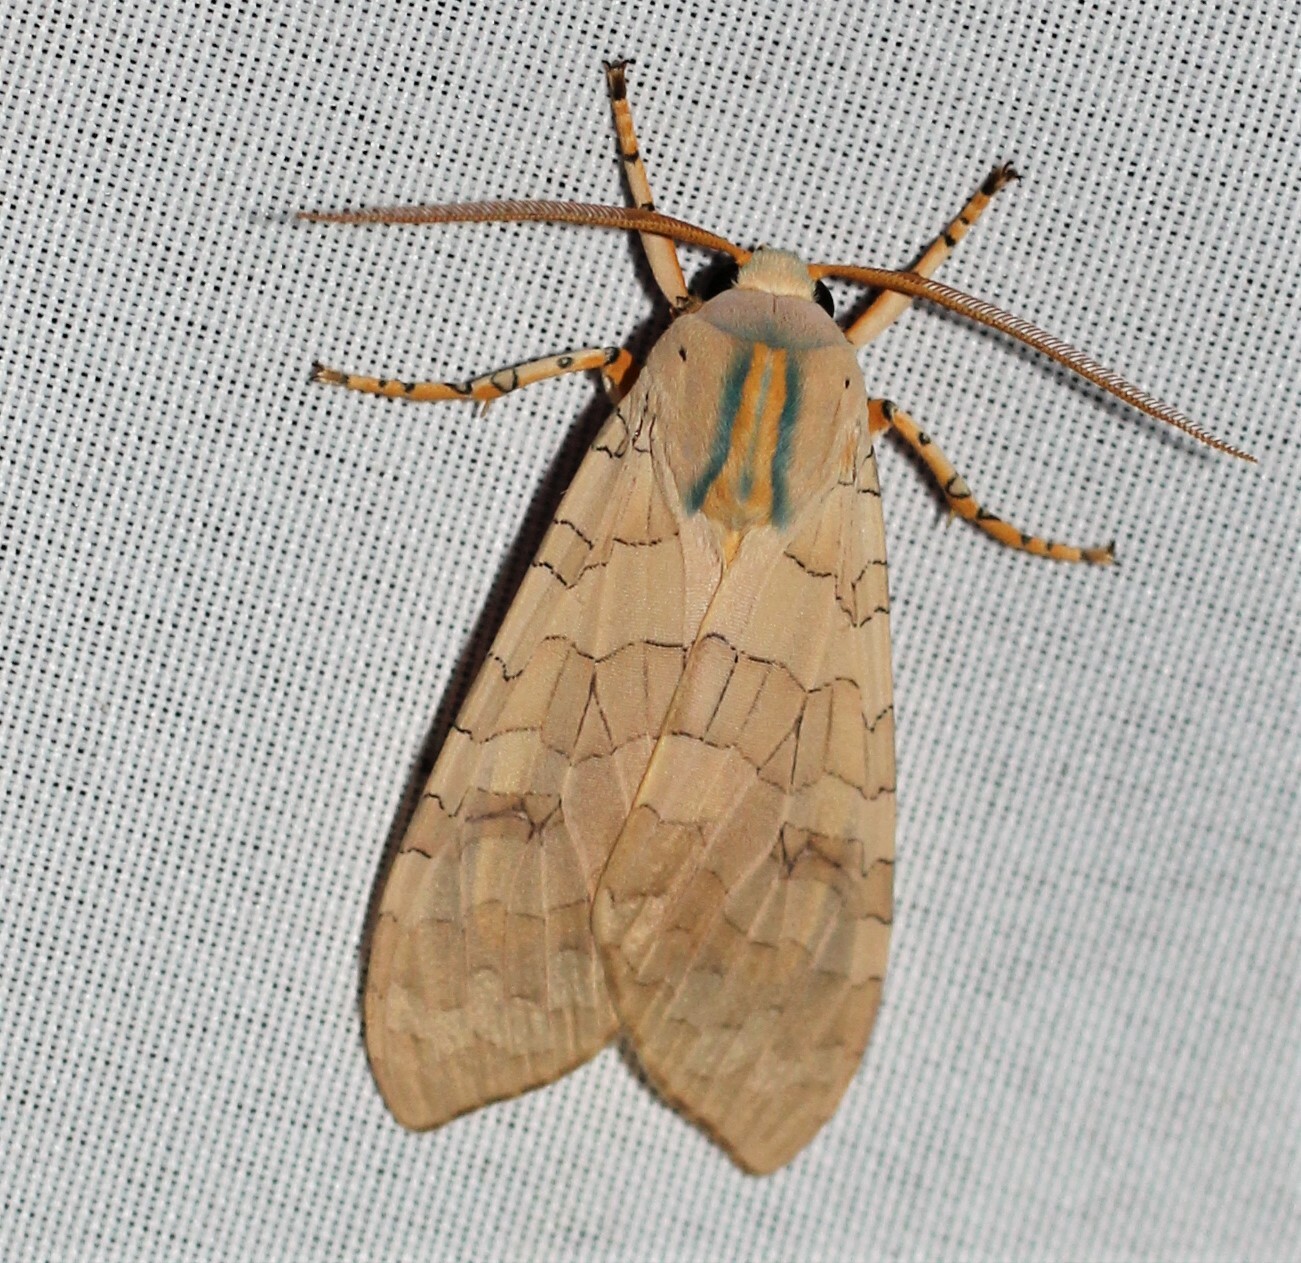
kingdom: Animalia
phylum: Arthropoda
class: Insecta
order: Lepidoptera
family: Erebidae
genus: Halysidota
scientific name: Halysidota
